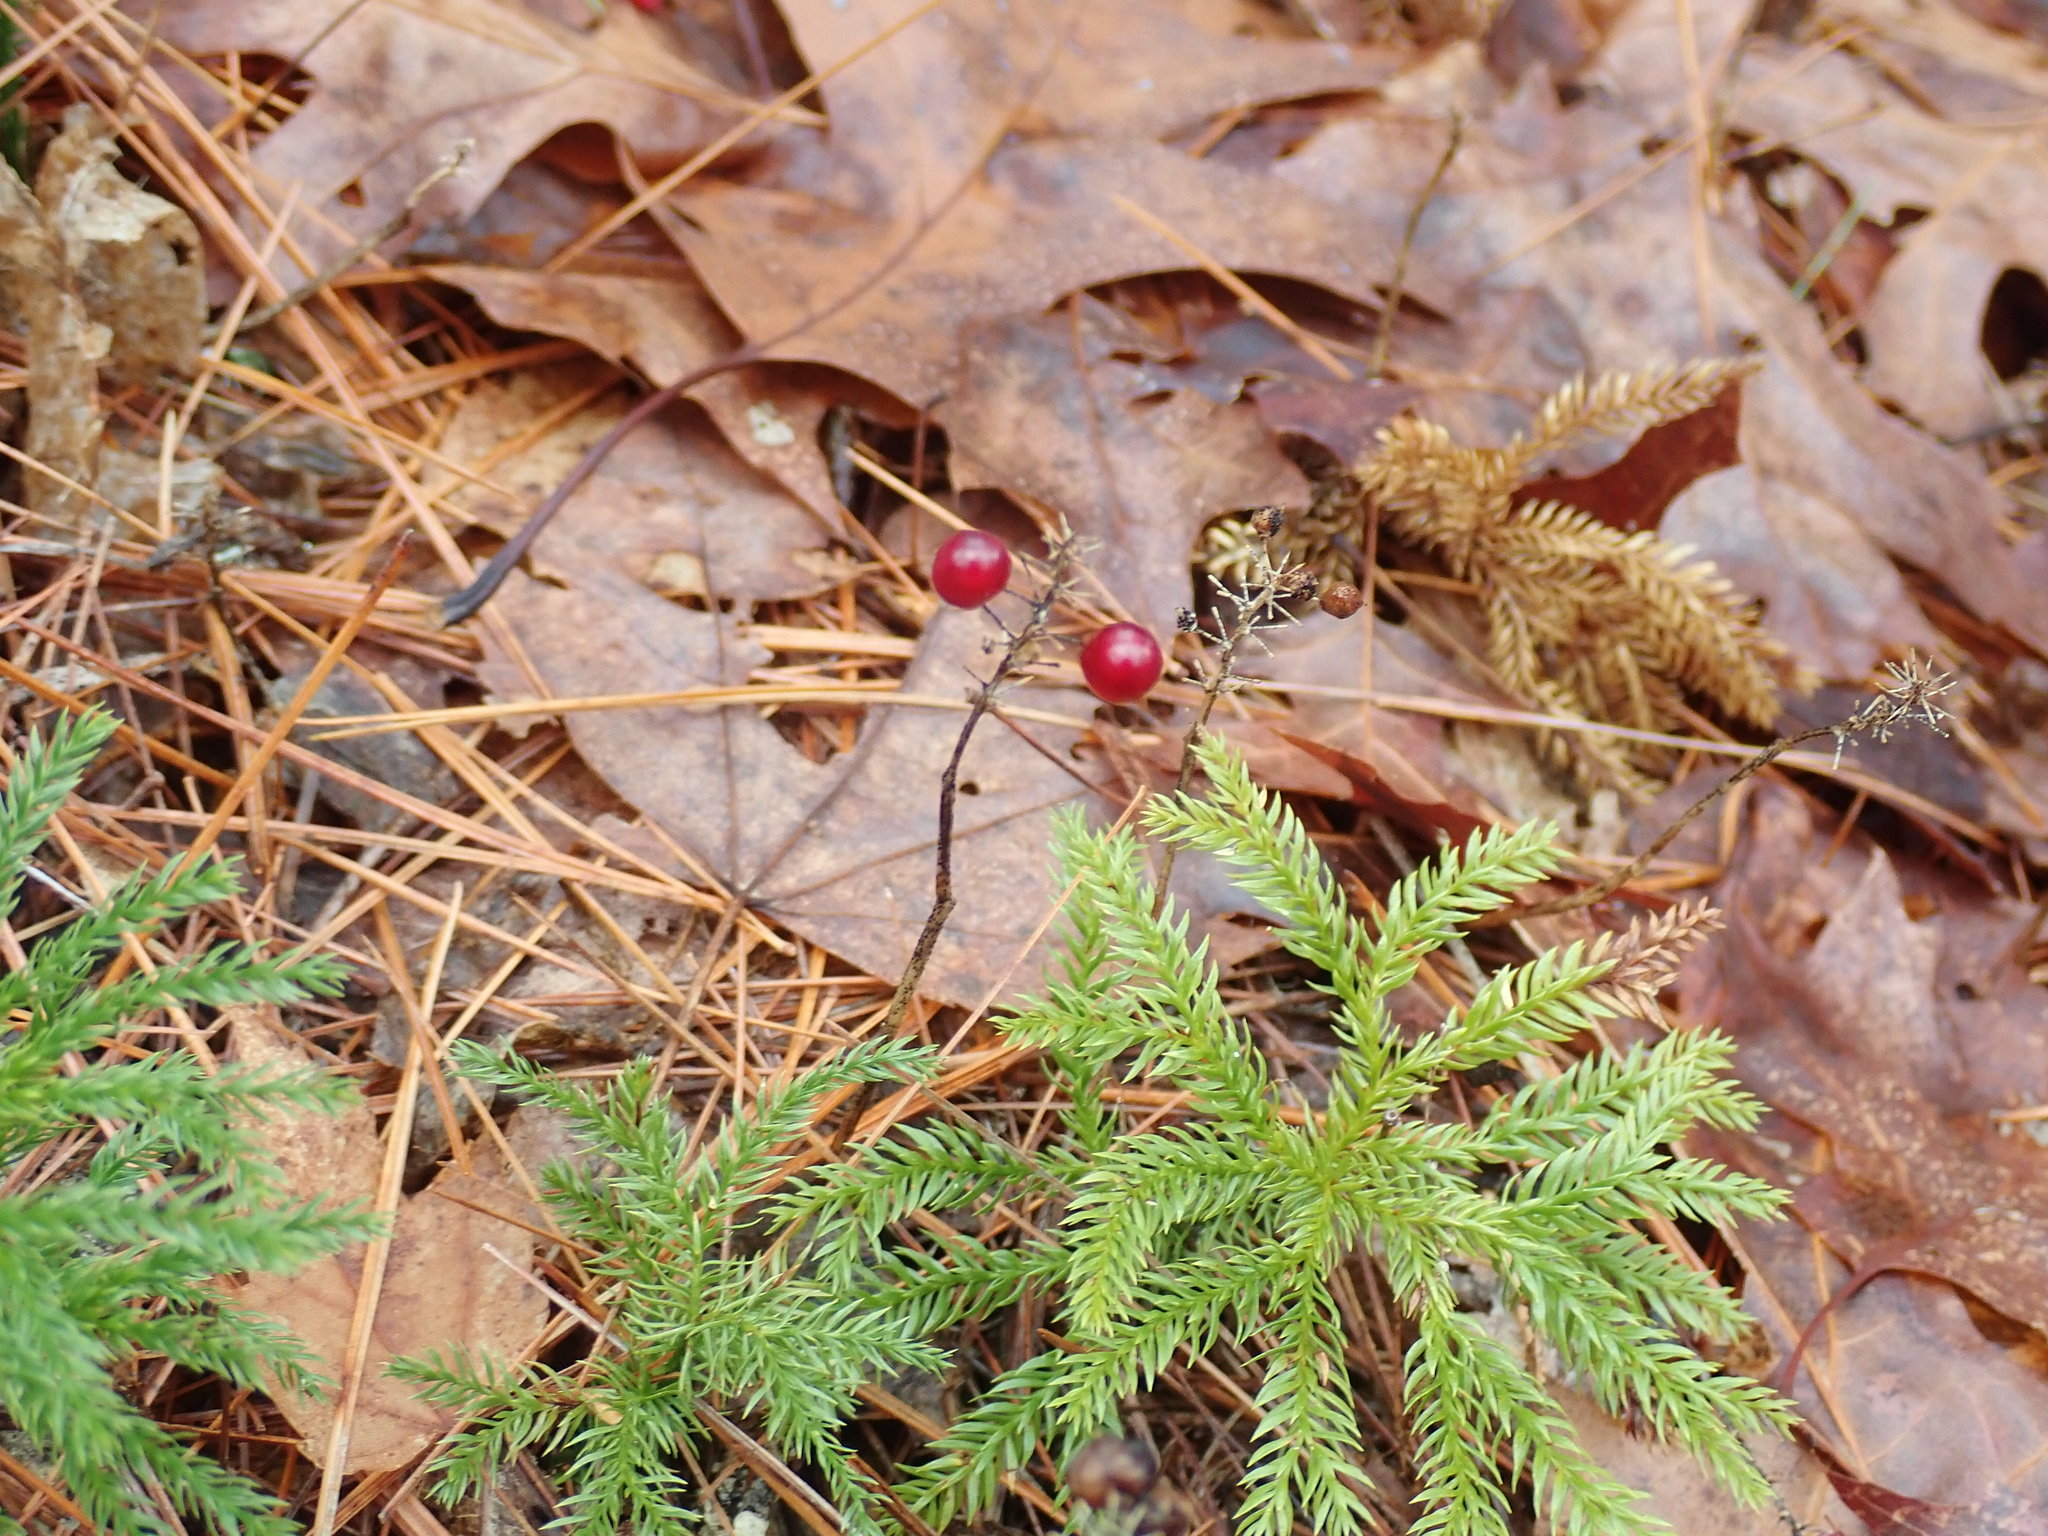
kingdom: Plantae
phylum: Tracheophyta
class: Liliopsida
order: Asparagales
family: Asparagaceae
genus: Maianthemum
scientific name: Maianthemum canadense
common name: False lily-of-the-valley
